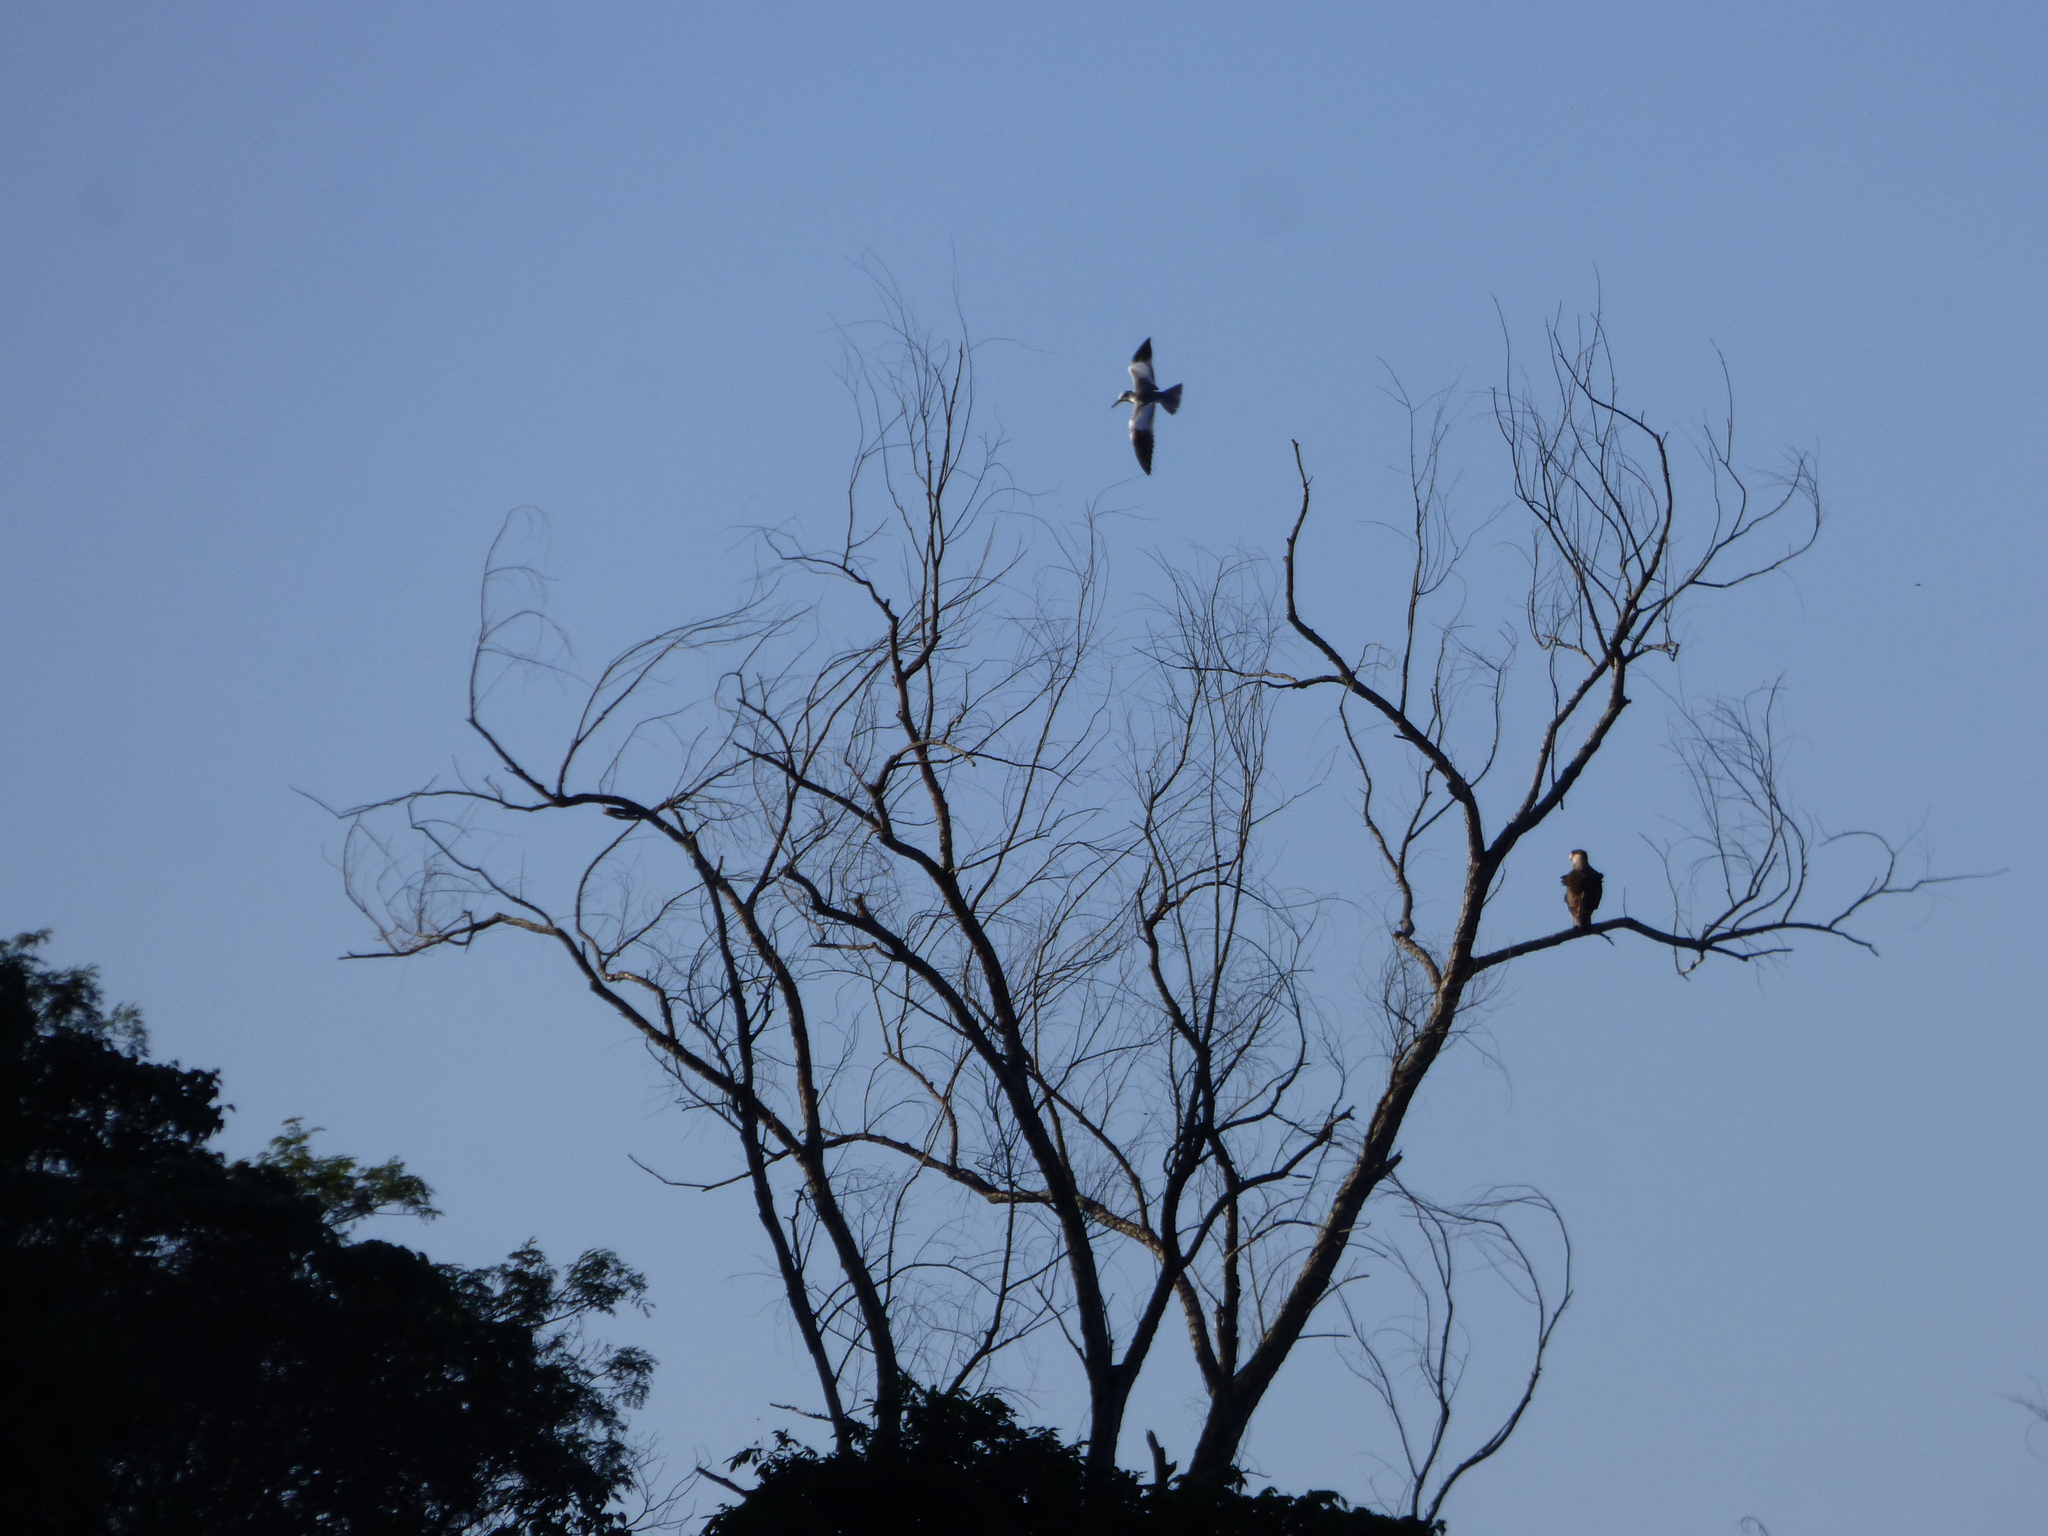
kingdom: Animalia
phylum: Chordata
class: Aves
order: Charadriiformes
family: Laridae
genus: Phaetusa
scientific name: Phaetusa simplex
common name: Large-billed tern
